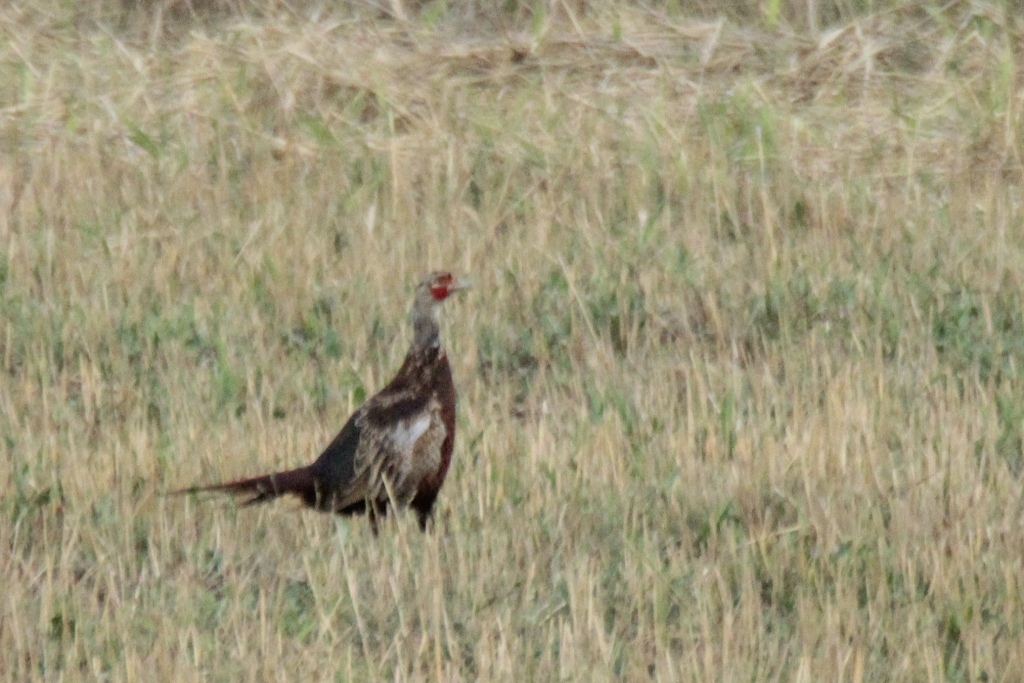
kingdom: Animalia
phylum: Chordata
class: Aves
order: Galliformes
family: Phasianidae
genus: Phasianus
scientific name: Phasianus colchicus
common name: Common pheasant
